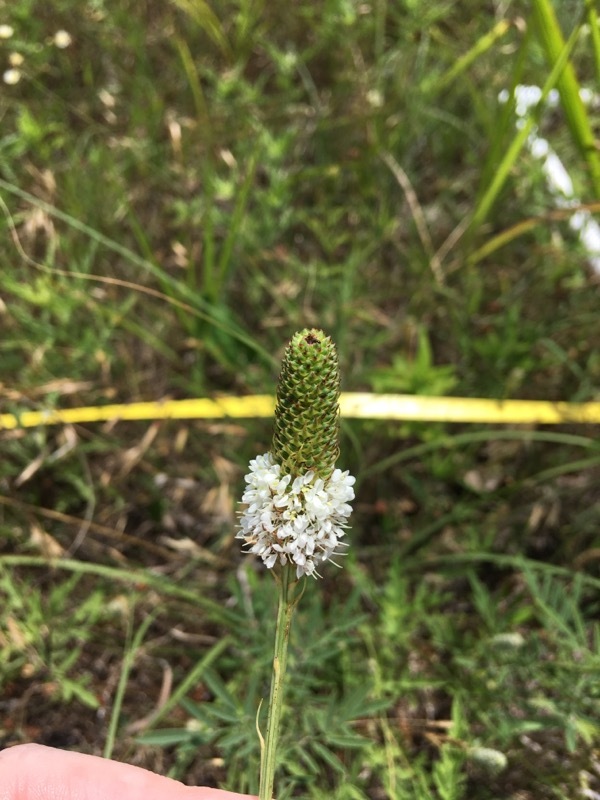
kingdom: Plantae
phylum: Tracheophyta
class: Magnoliopsida
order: Fabales
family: Fabaceae
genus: Dalea
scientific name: Dalea candida
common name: White prairie-clover
